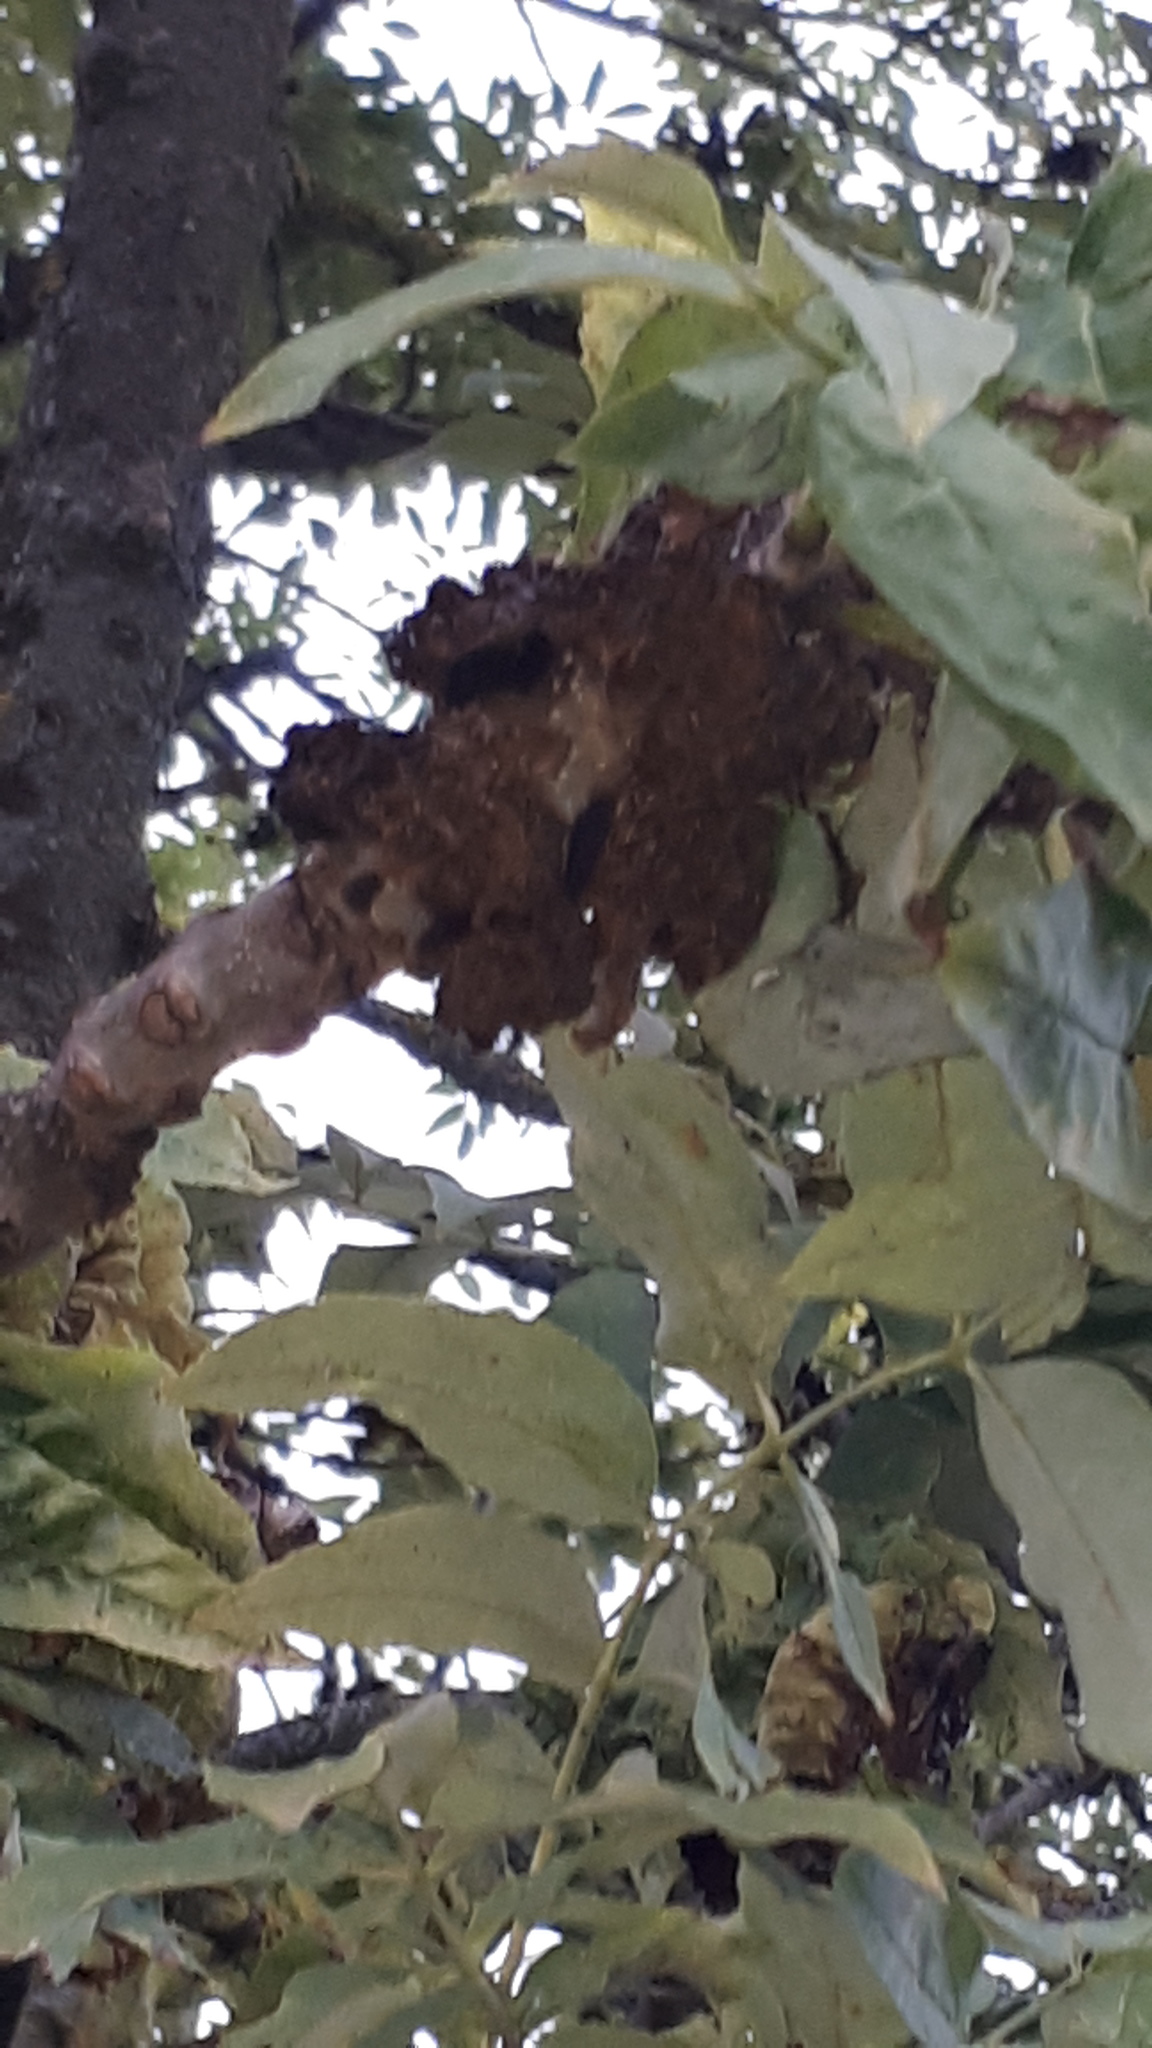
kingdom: Animalia
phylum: Arthropoda
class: Arachnida
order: Trombidiformes
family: Eriophyidae
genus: Aceria
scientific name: Aceria fraxinivora
